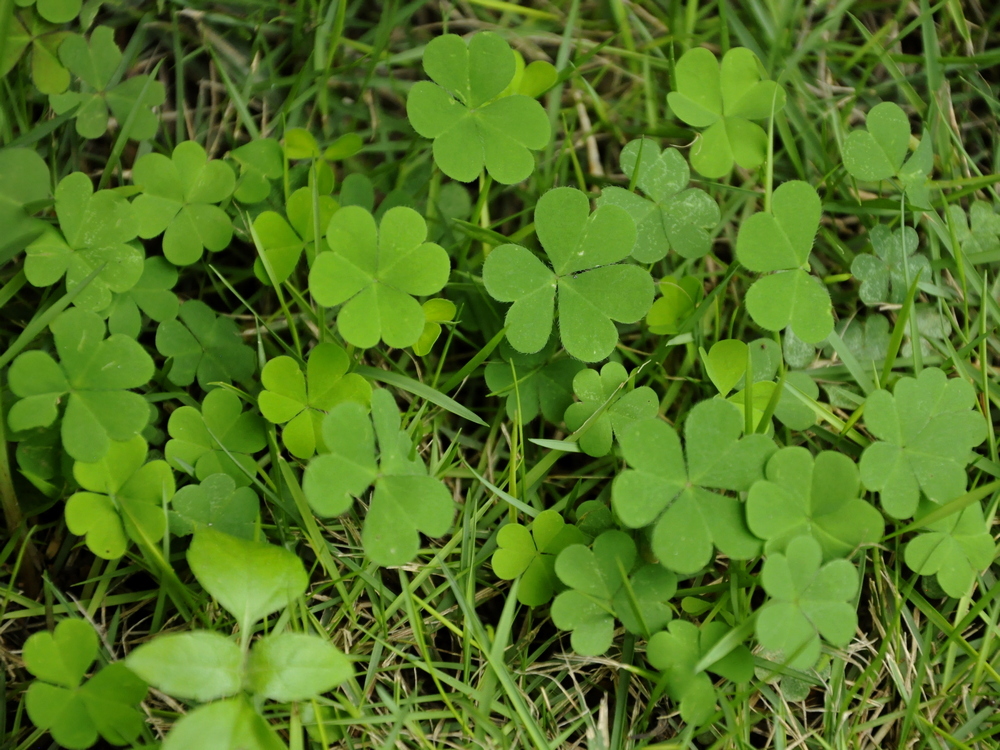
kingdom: Plantae
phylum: Tracheophyta
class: Magnoliopsida
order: Oxalidales
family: Oxalidaceae
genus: Oxalis
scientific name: Oxalis corniculata
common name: Procumbent yellow-sorrel
